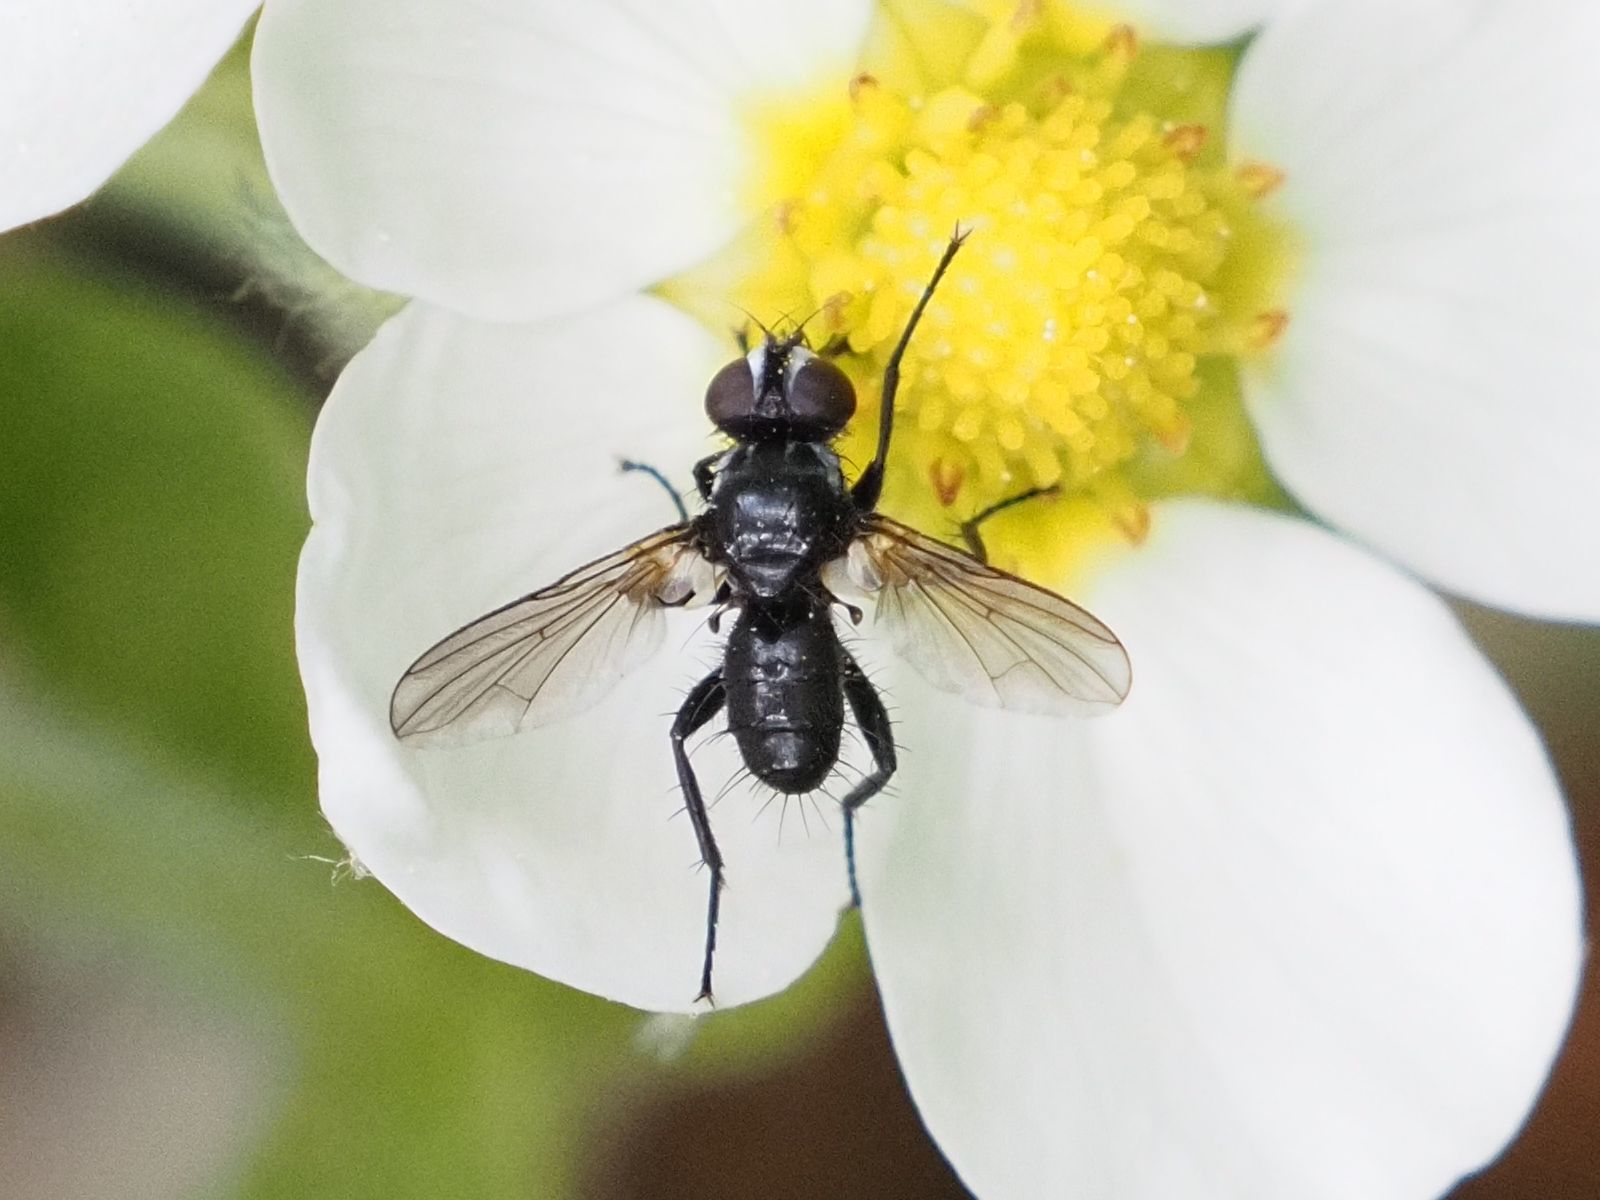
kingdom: Animalia
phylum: Arthropoda
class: Insecta
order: Diptera
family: Tachinidae
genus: Phania
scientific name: Phania funesta
